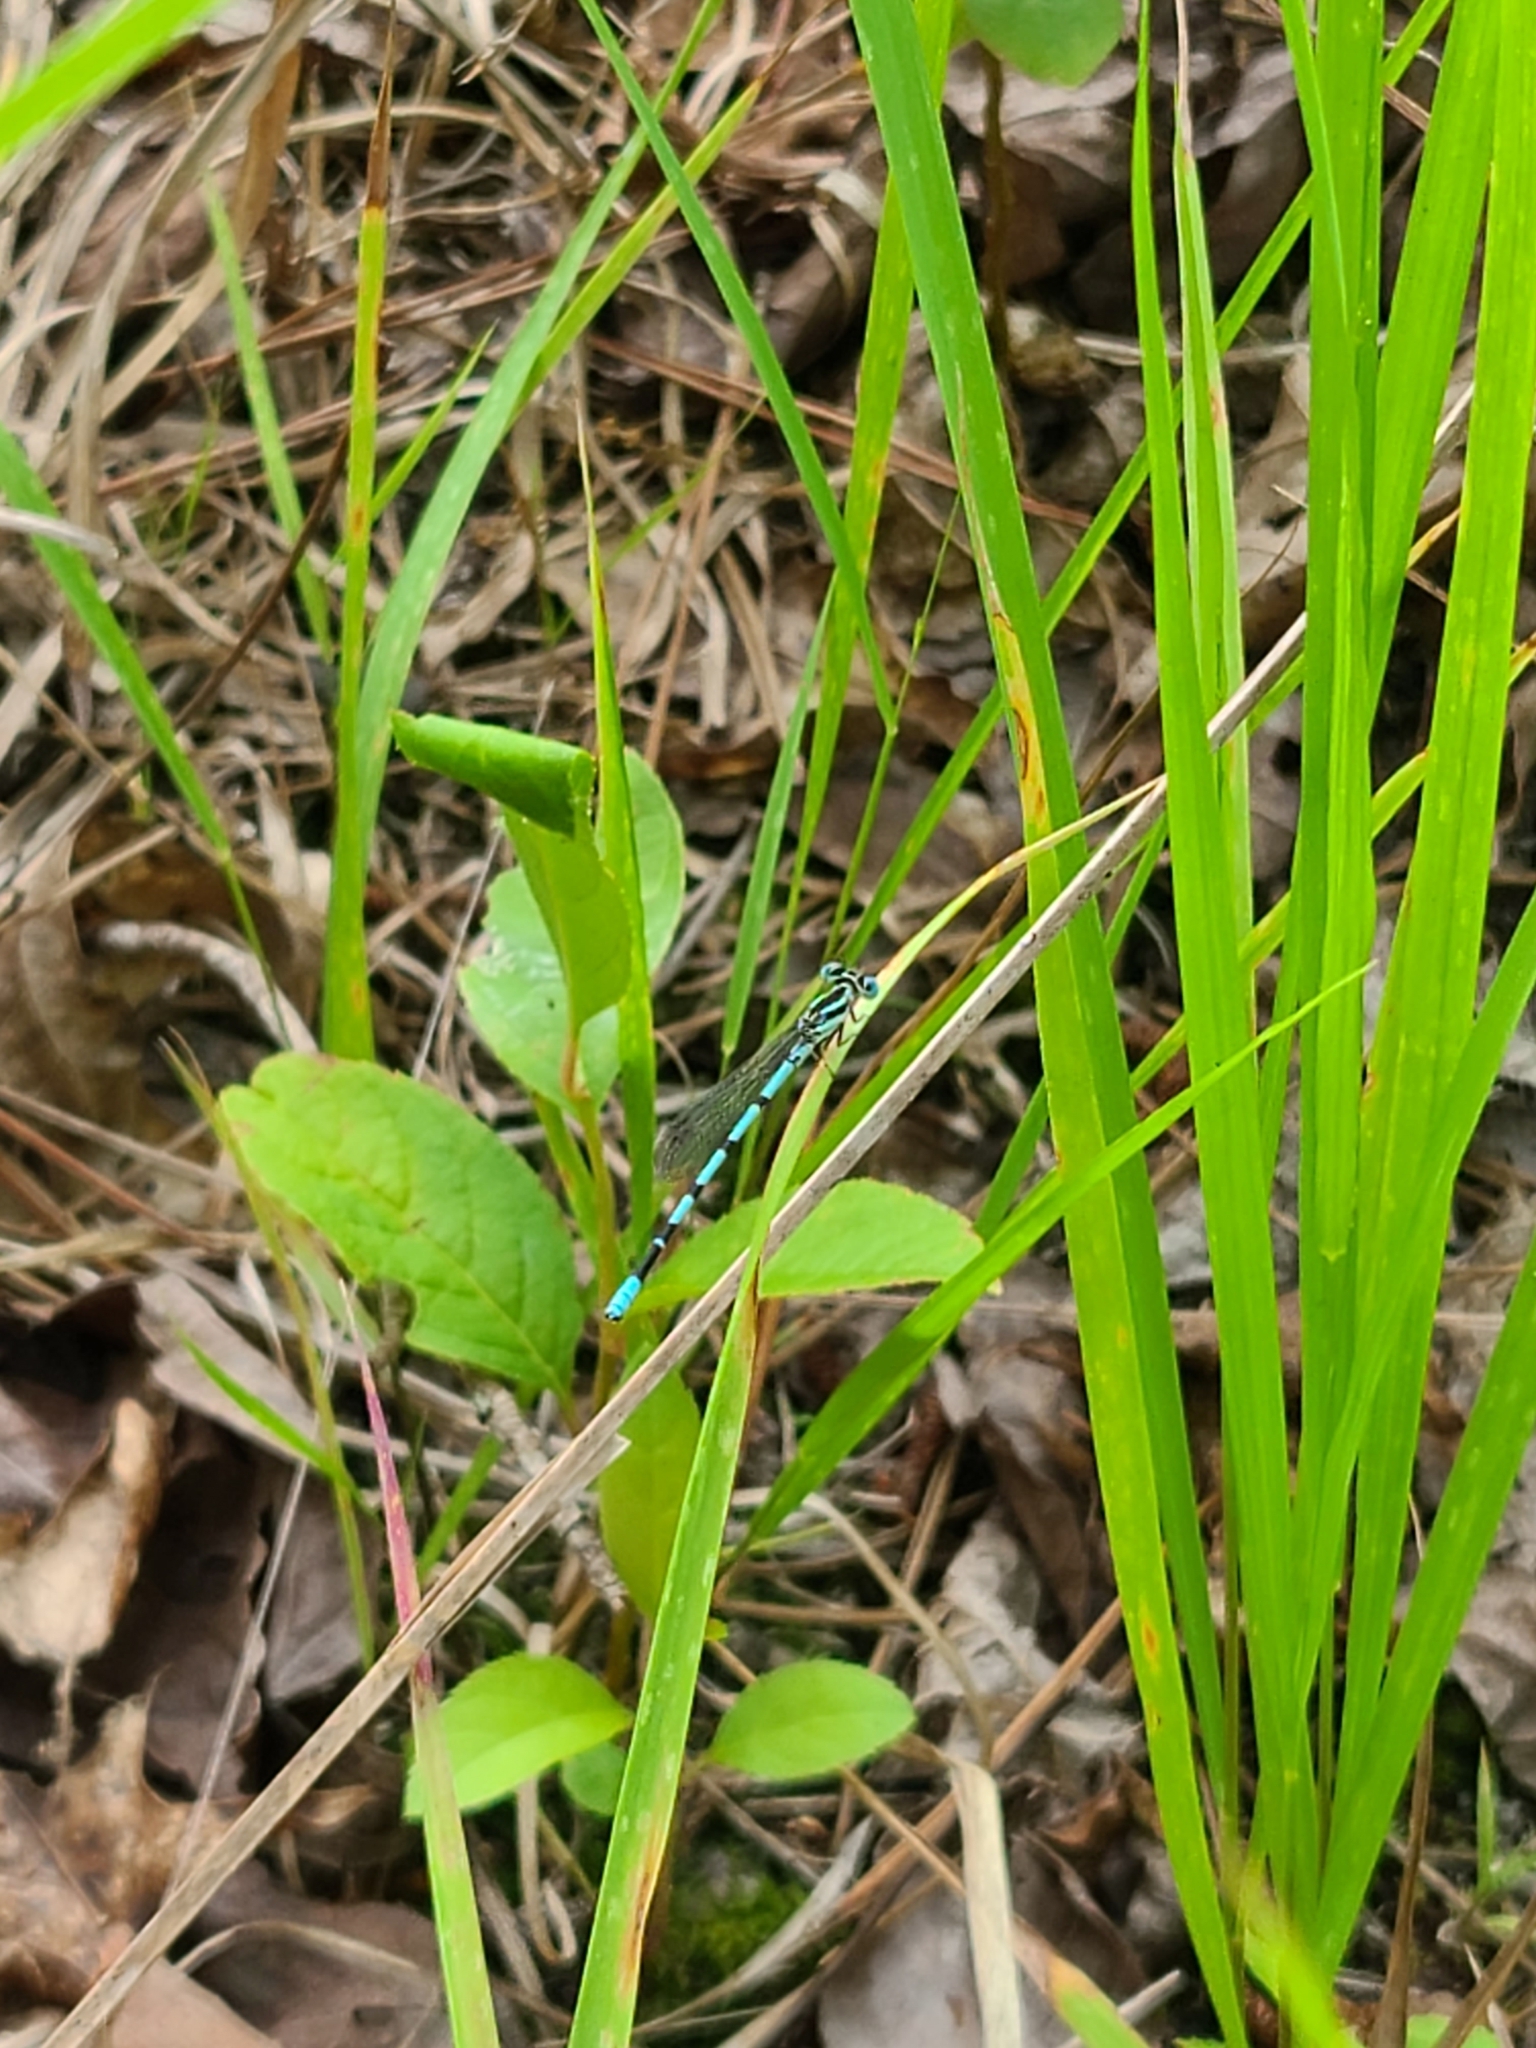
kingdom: Animalia
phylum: Arthropoda
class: Insecta
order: Odonata
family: Coenagrionidae
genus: Argia
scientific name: Argia bipunctulata
